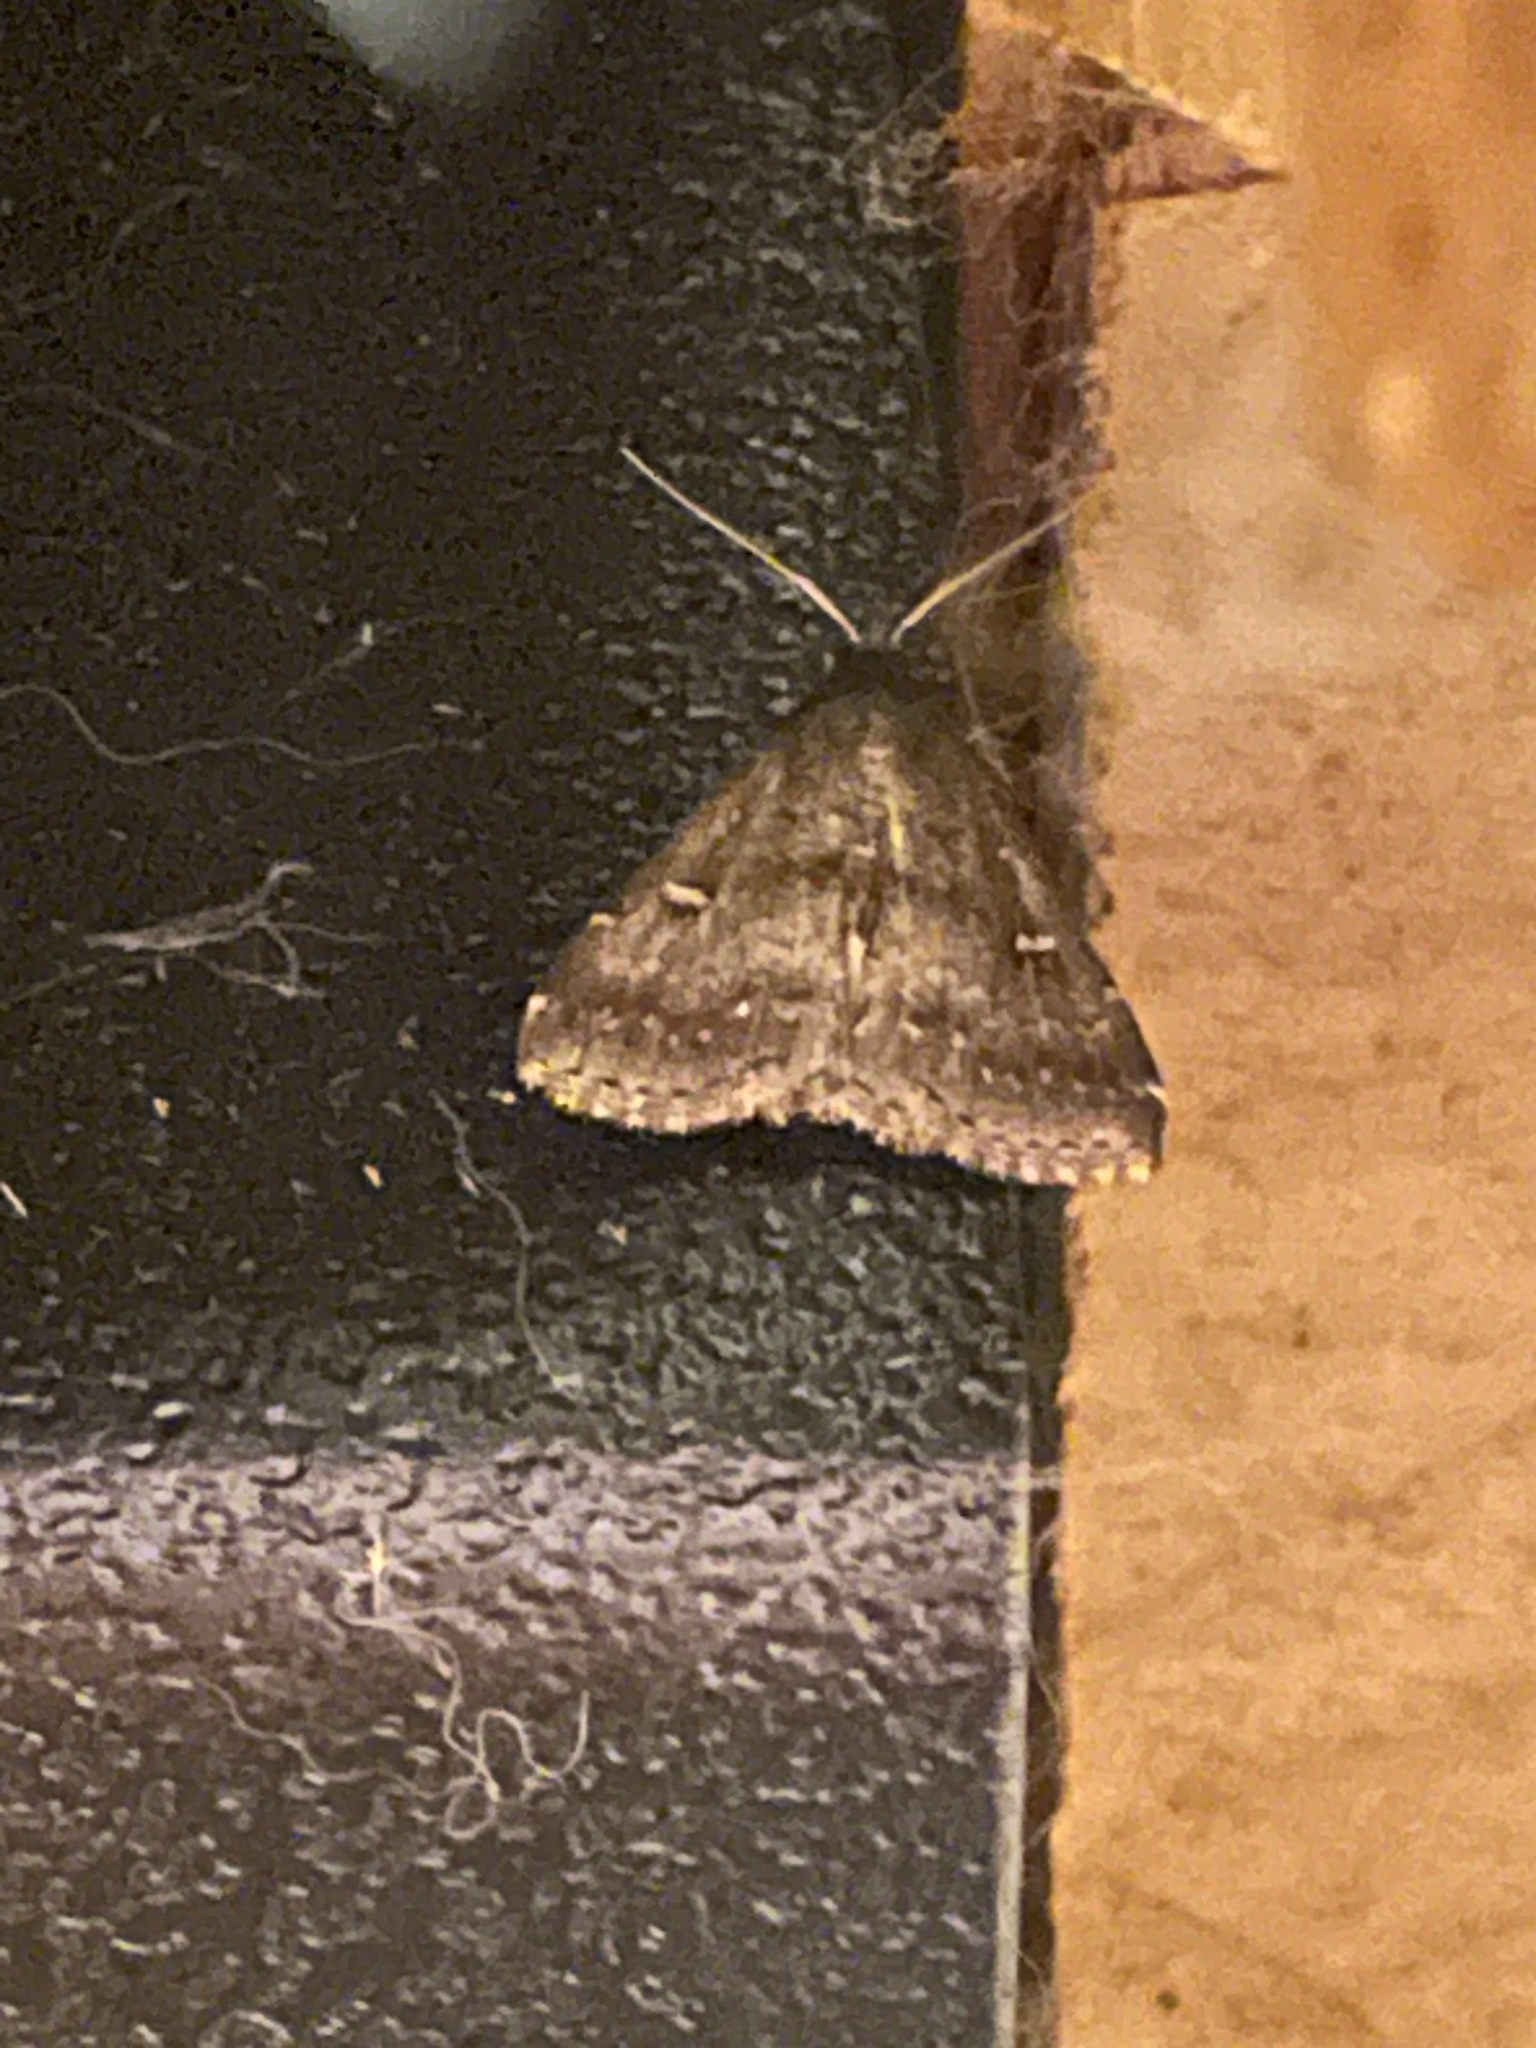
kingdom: Animalia
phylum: Arthropoda
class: Insecta
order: Lepidoptera
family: Erebidae
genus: Tetanolita
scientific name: Tetanolita mynesalis
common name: Smoky tetanolita moth
